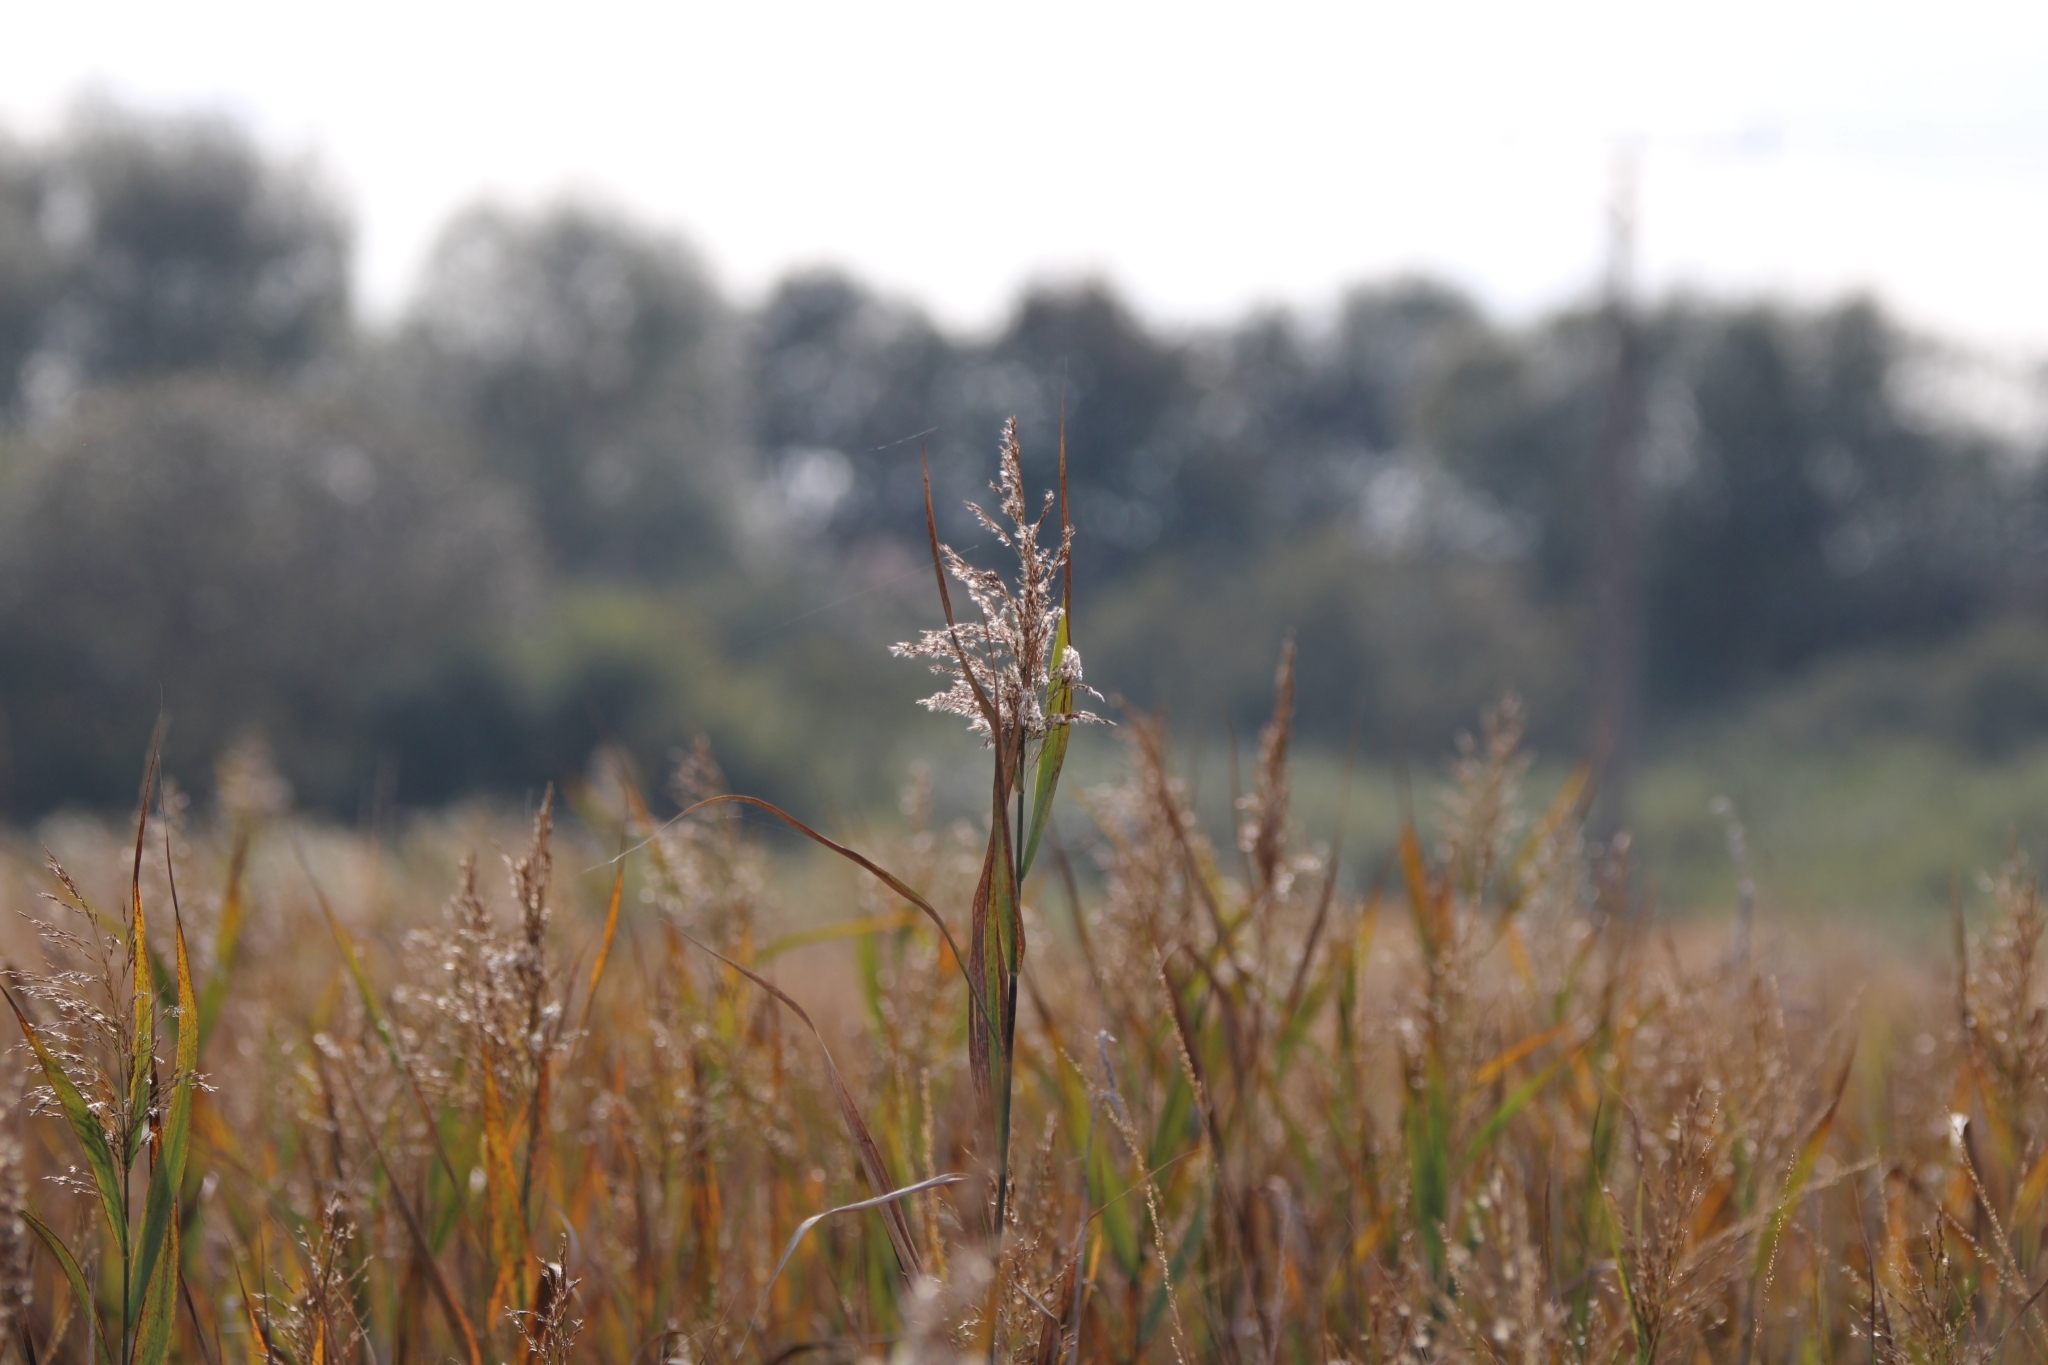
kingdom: Plantae
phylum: Tracheophyta
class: Liliopsida
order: Poales
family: Poaceae
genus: Phragmites
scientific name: Phragmites australis
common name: Common reed
